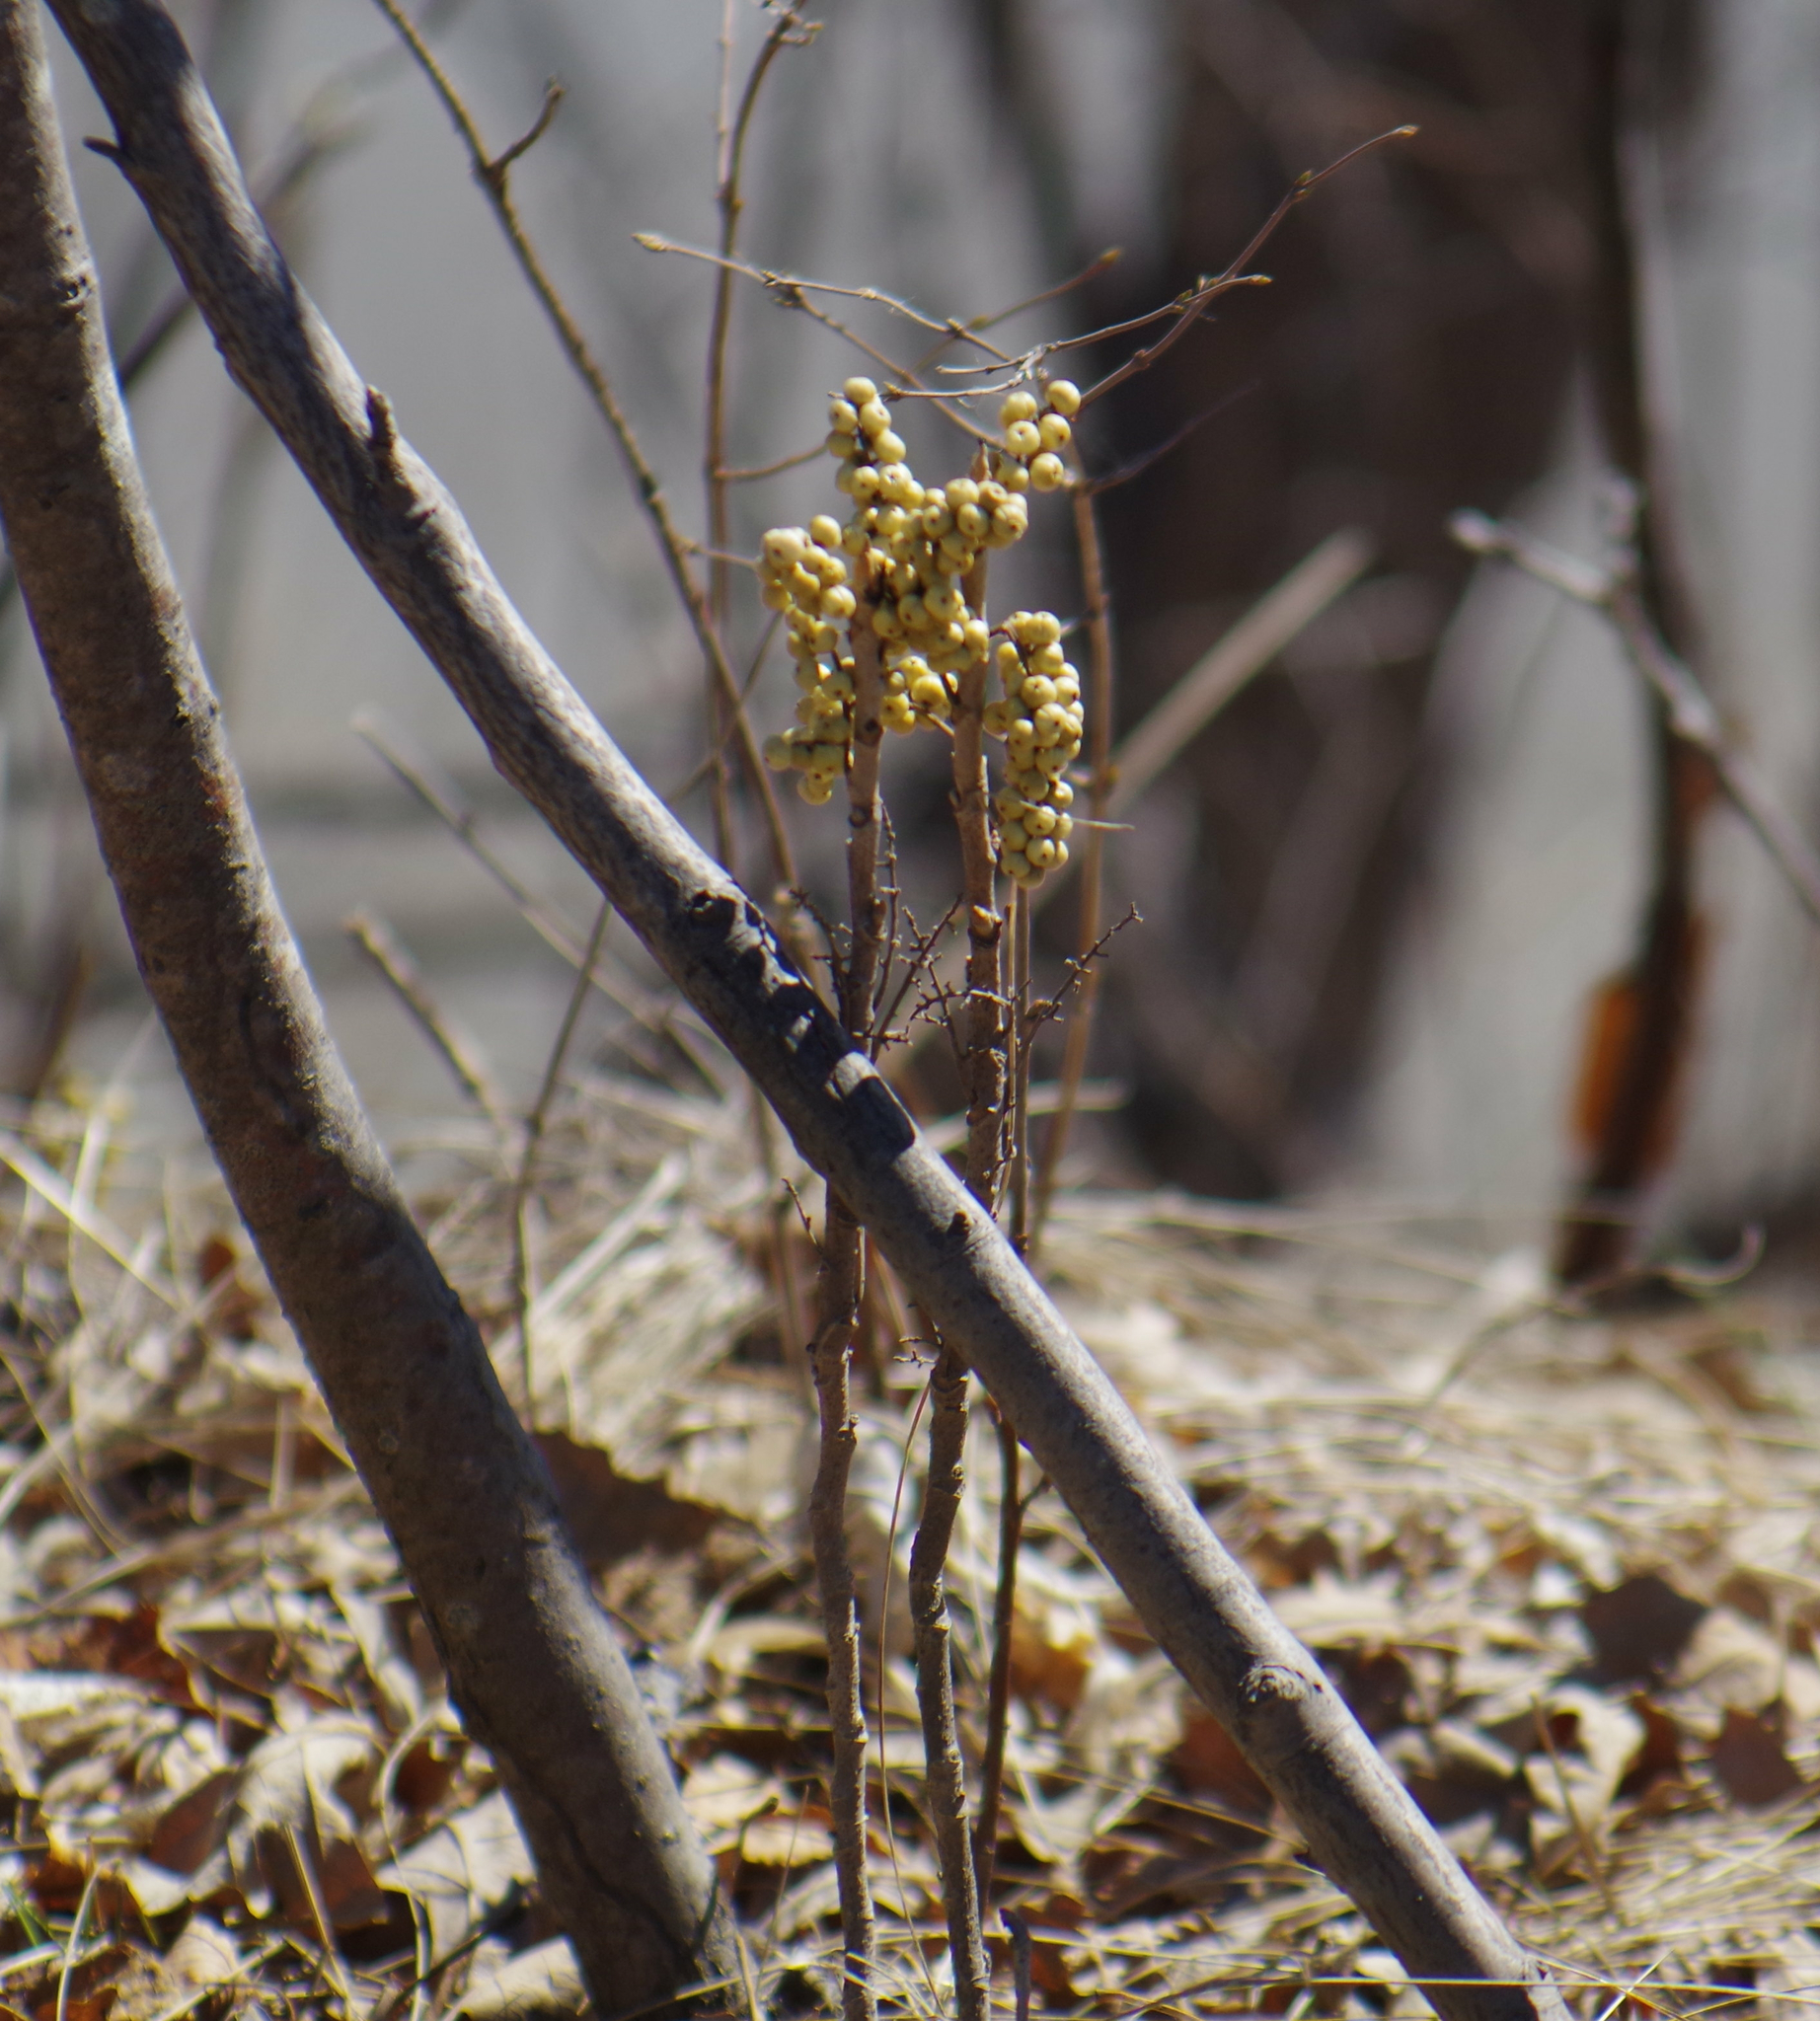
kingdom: Plantae
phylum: Tracheophyta
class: Magnoliopsida
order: Sapindales
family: Anacardiaceae
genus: Toxicodendron
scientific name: Toxicodendron rydbergii
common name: Rydberg's poison-ivy
